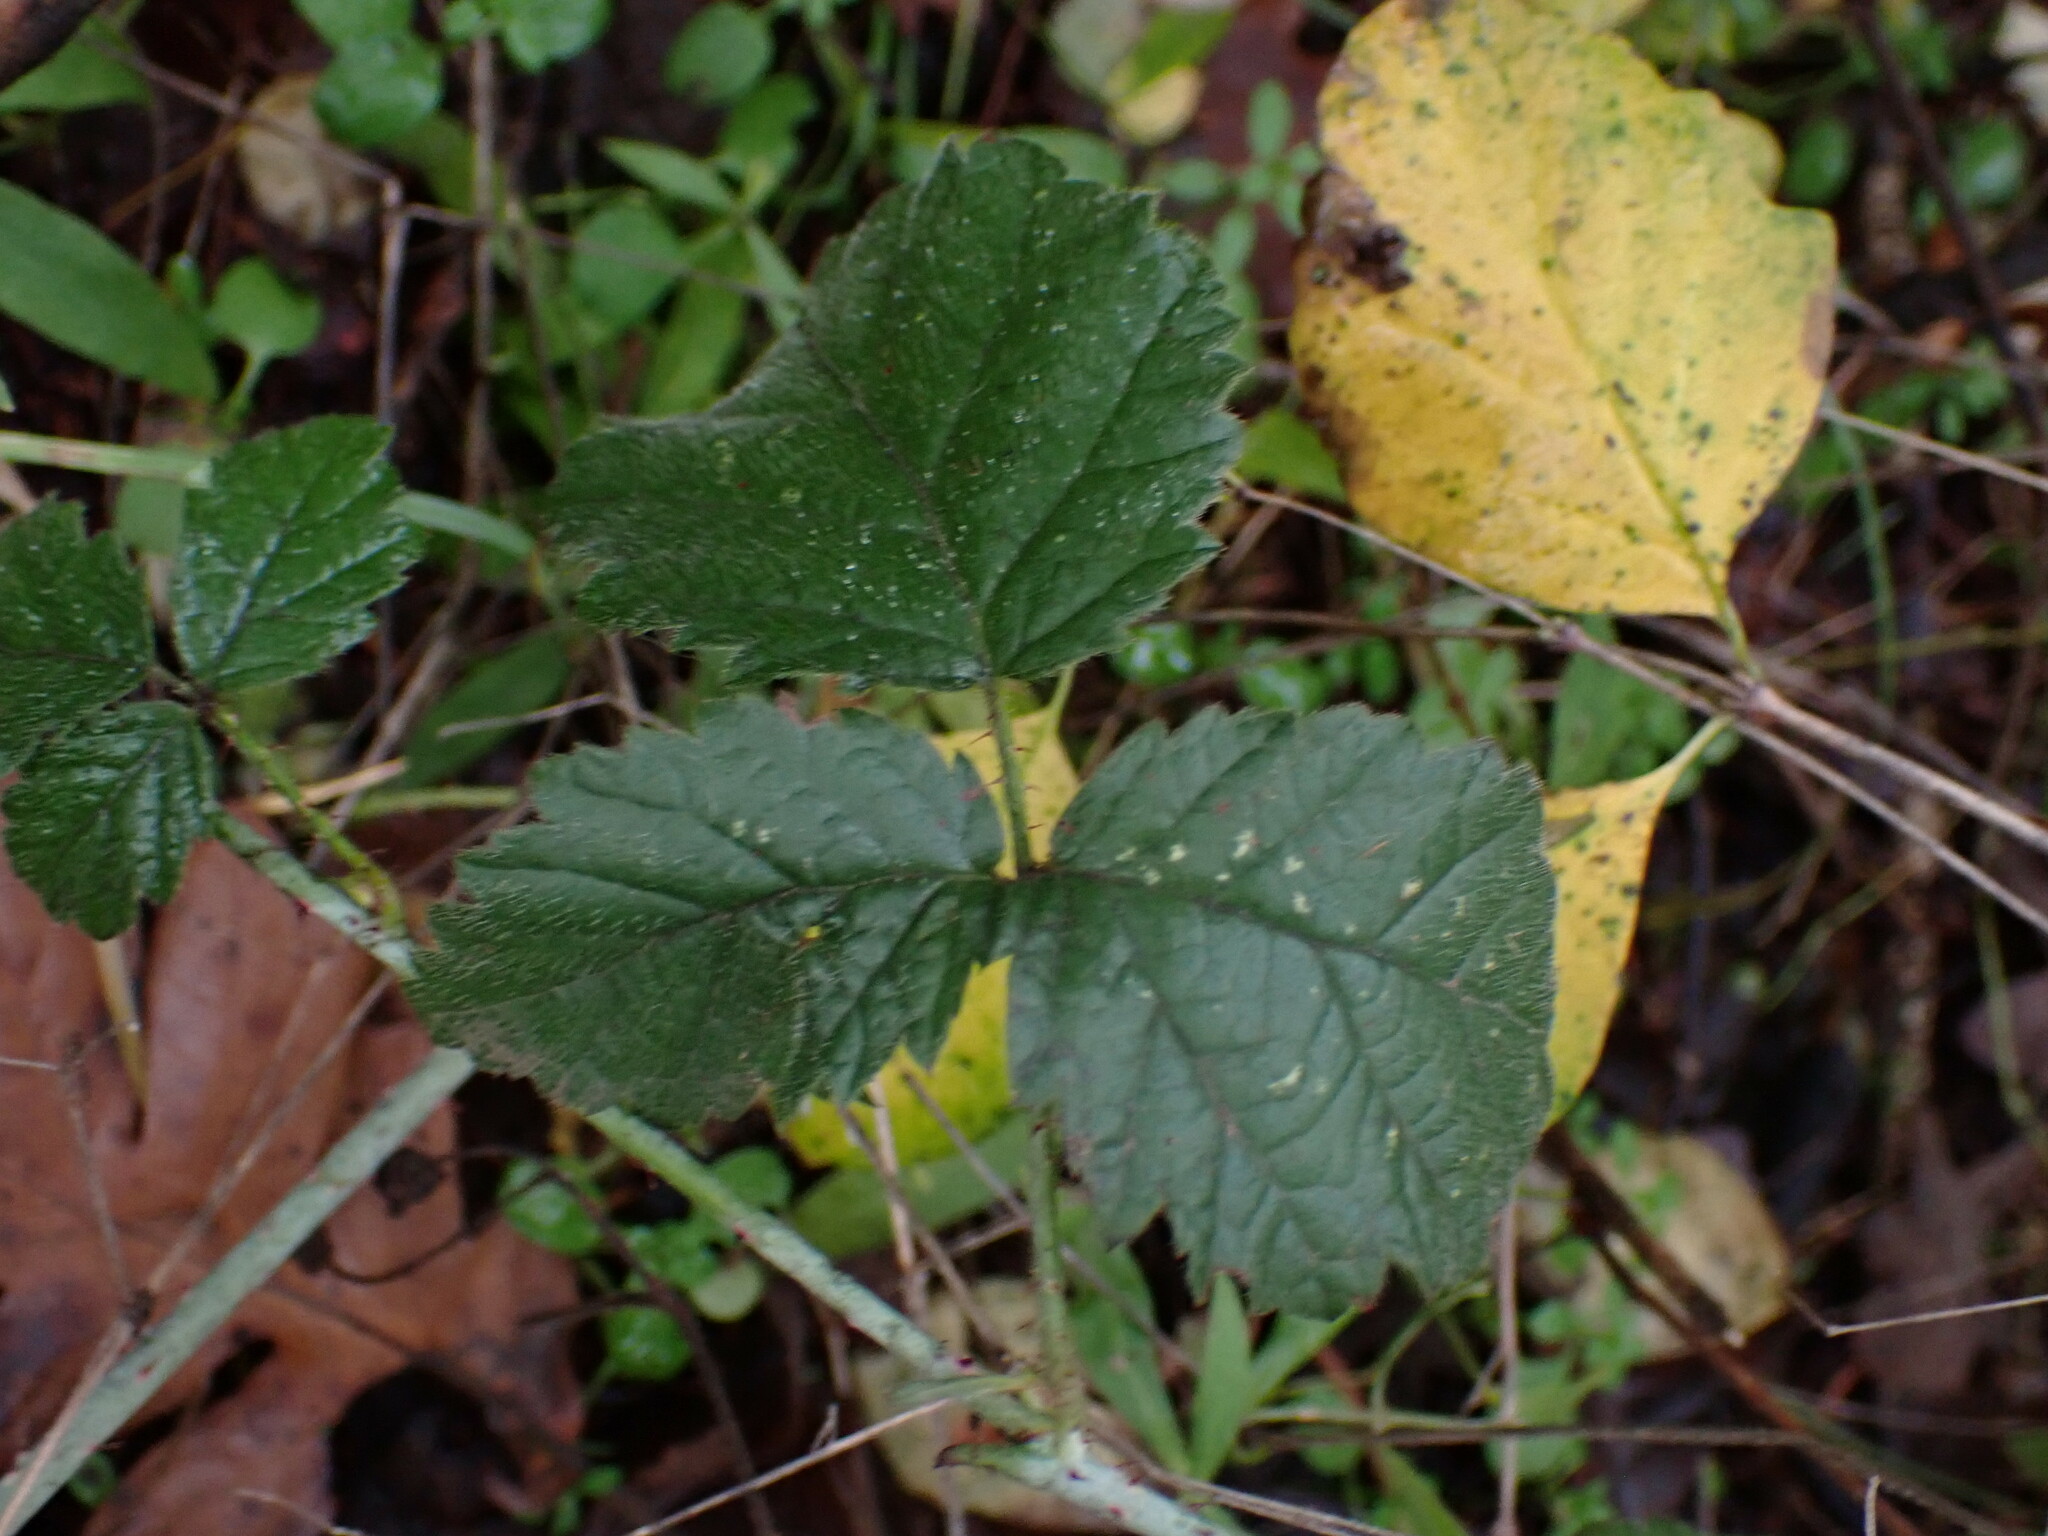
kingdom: Plantae
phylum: Tracheophyta
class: Magnoliopsida
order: Rosales
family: Rosaceae
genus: Rubus
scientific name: Rubus ursinus
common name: Pacific blackberry
